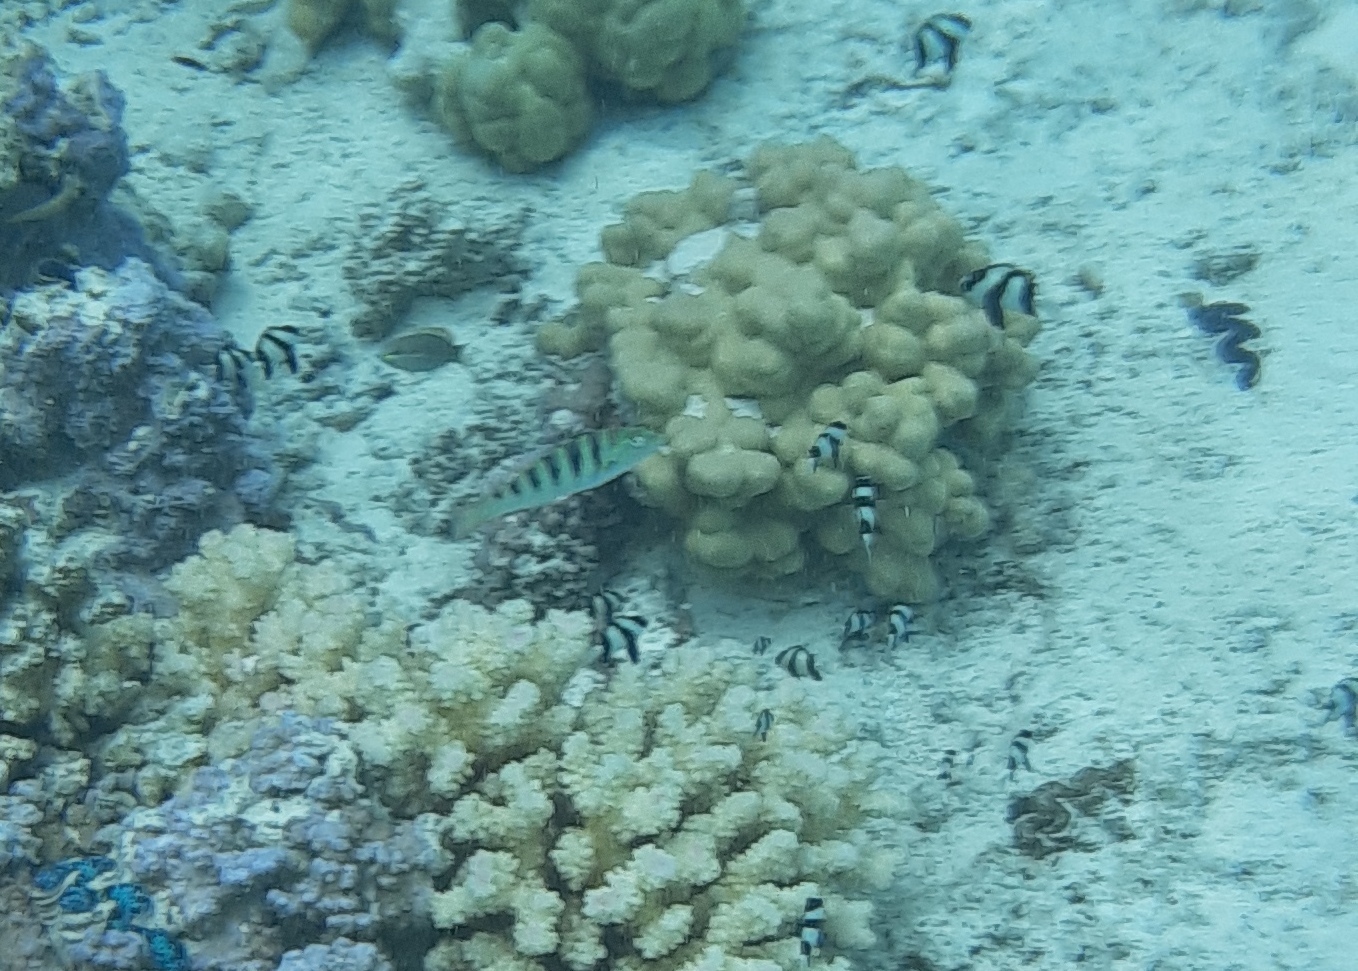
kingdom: Animalia
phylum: Chordata
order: Perciformes
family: Pomacentridae
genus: Dascyllus
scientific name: Dascyllus aruanus
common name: Humbug dascyllus
